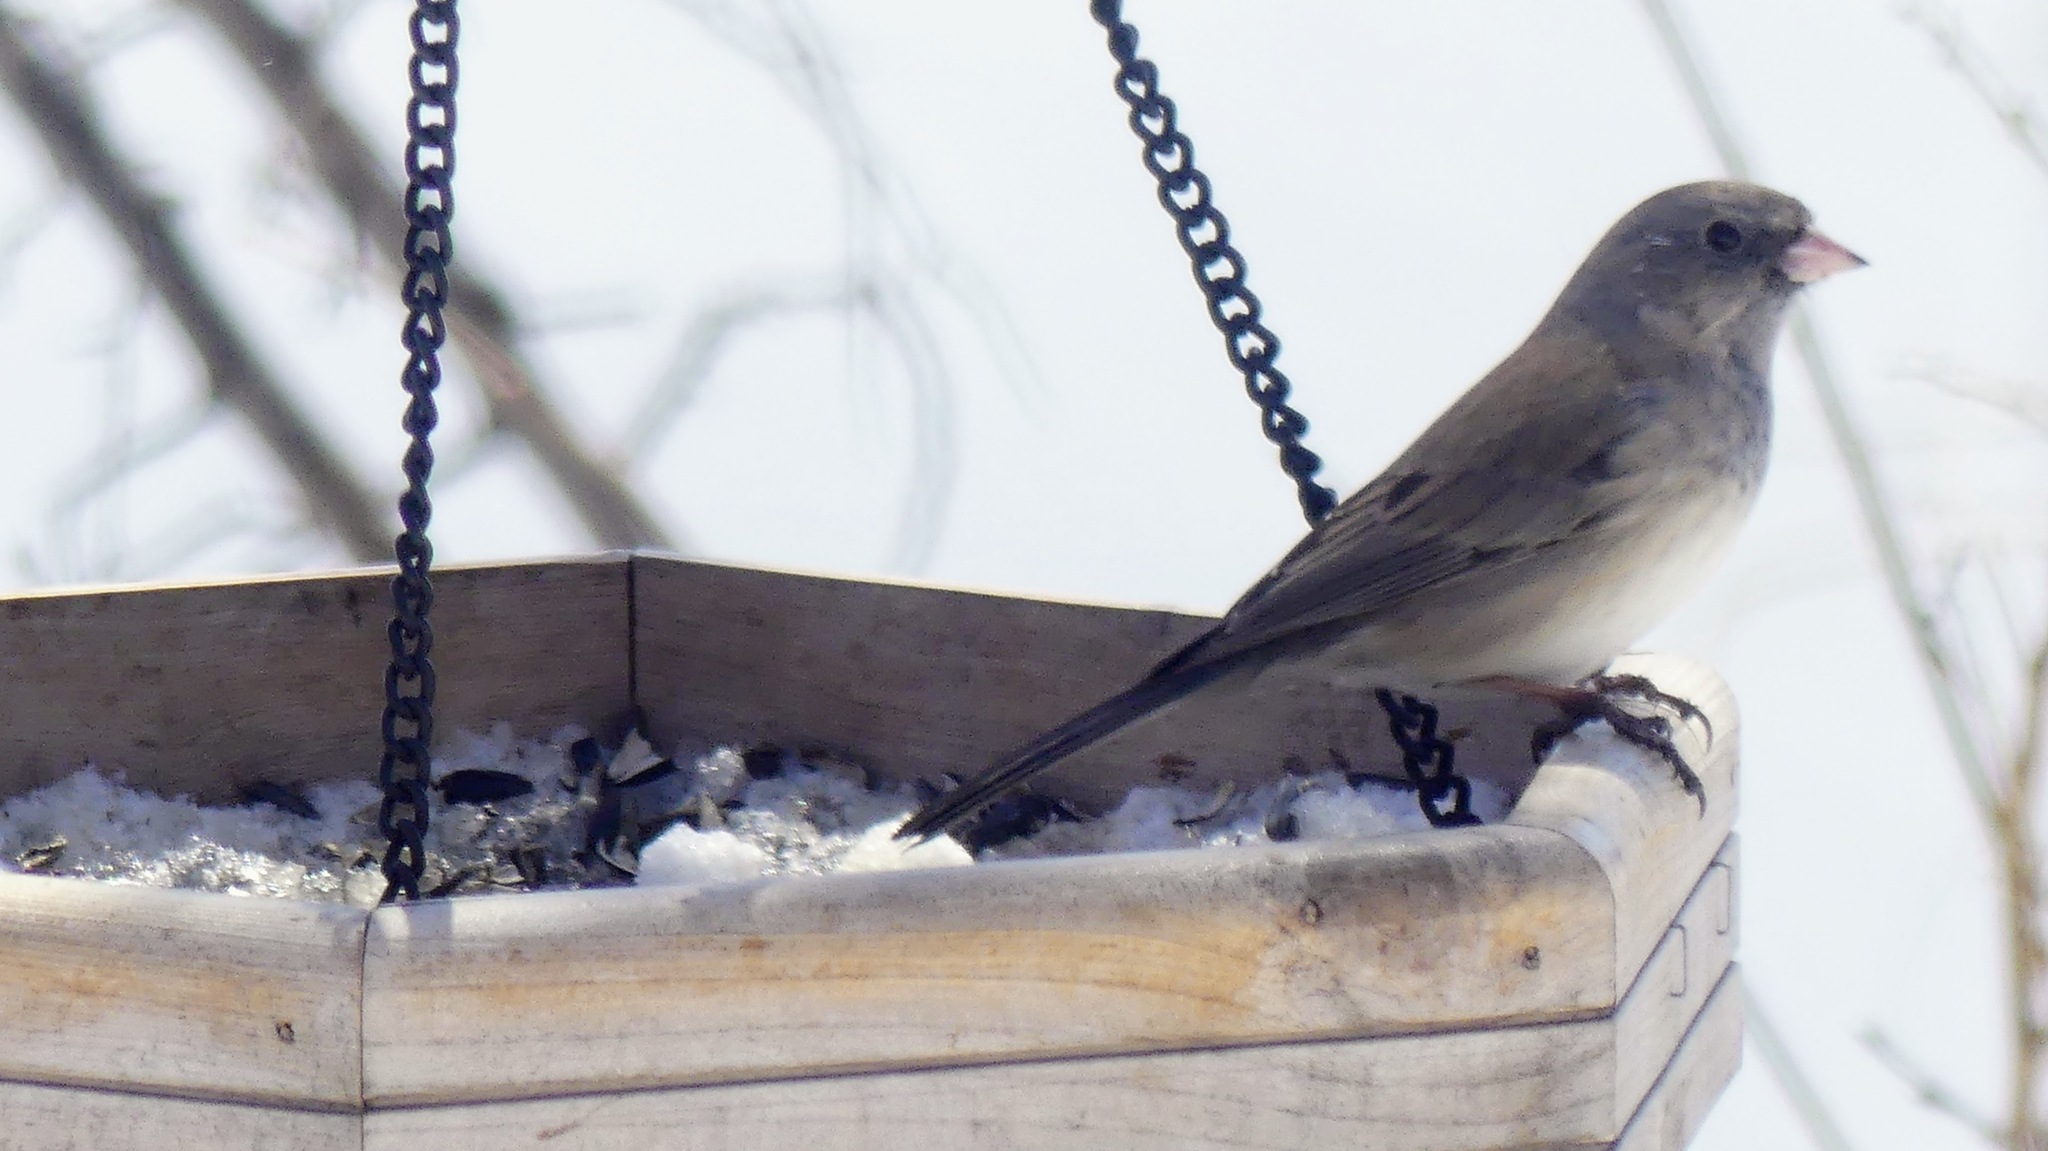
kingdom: Animalia
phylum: Chordata
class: Aves
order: Passeriformes
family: Passerellidae
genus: Junco
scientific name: Junco hyemalis
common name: Dark-eyed junco
